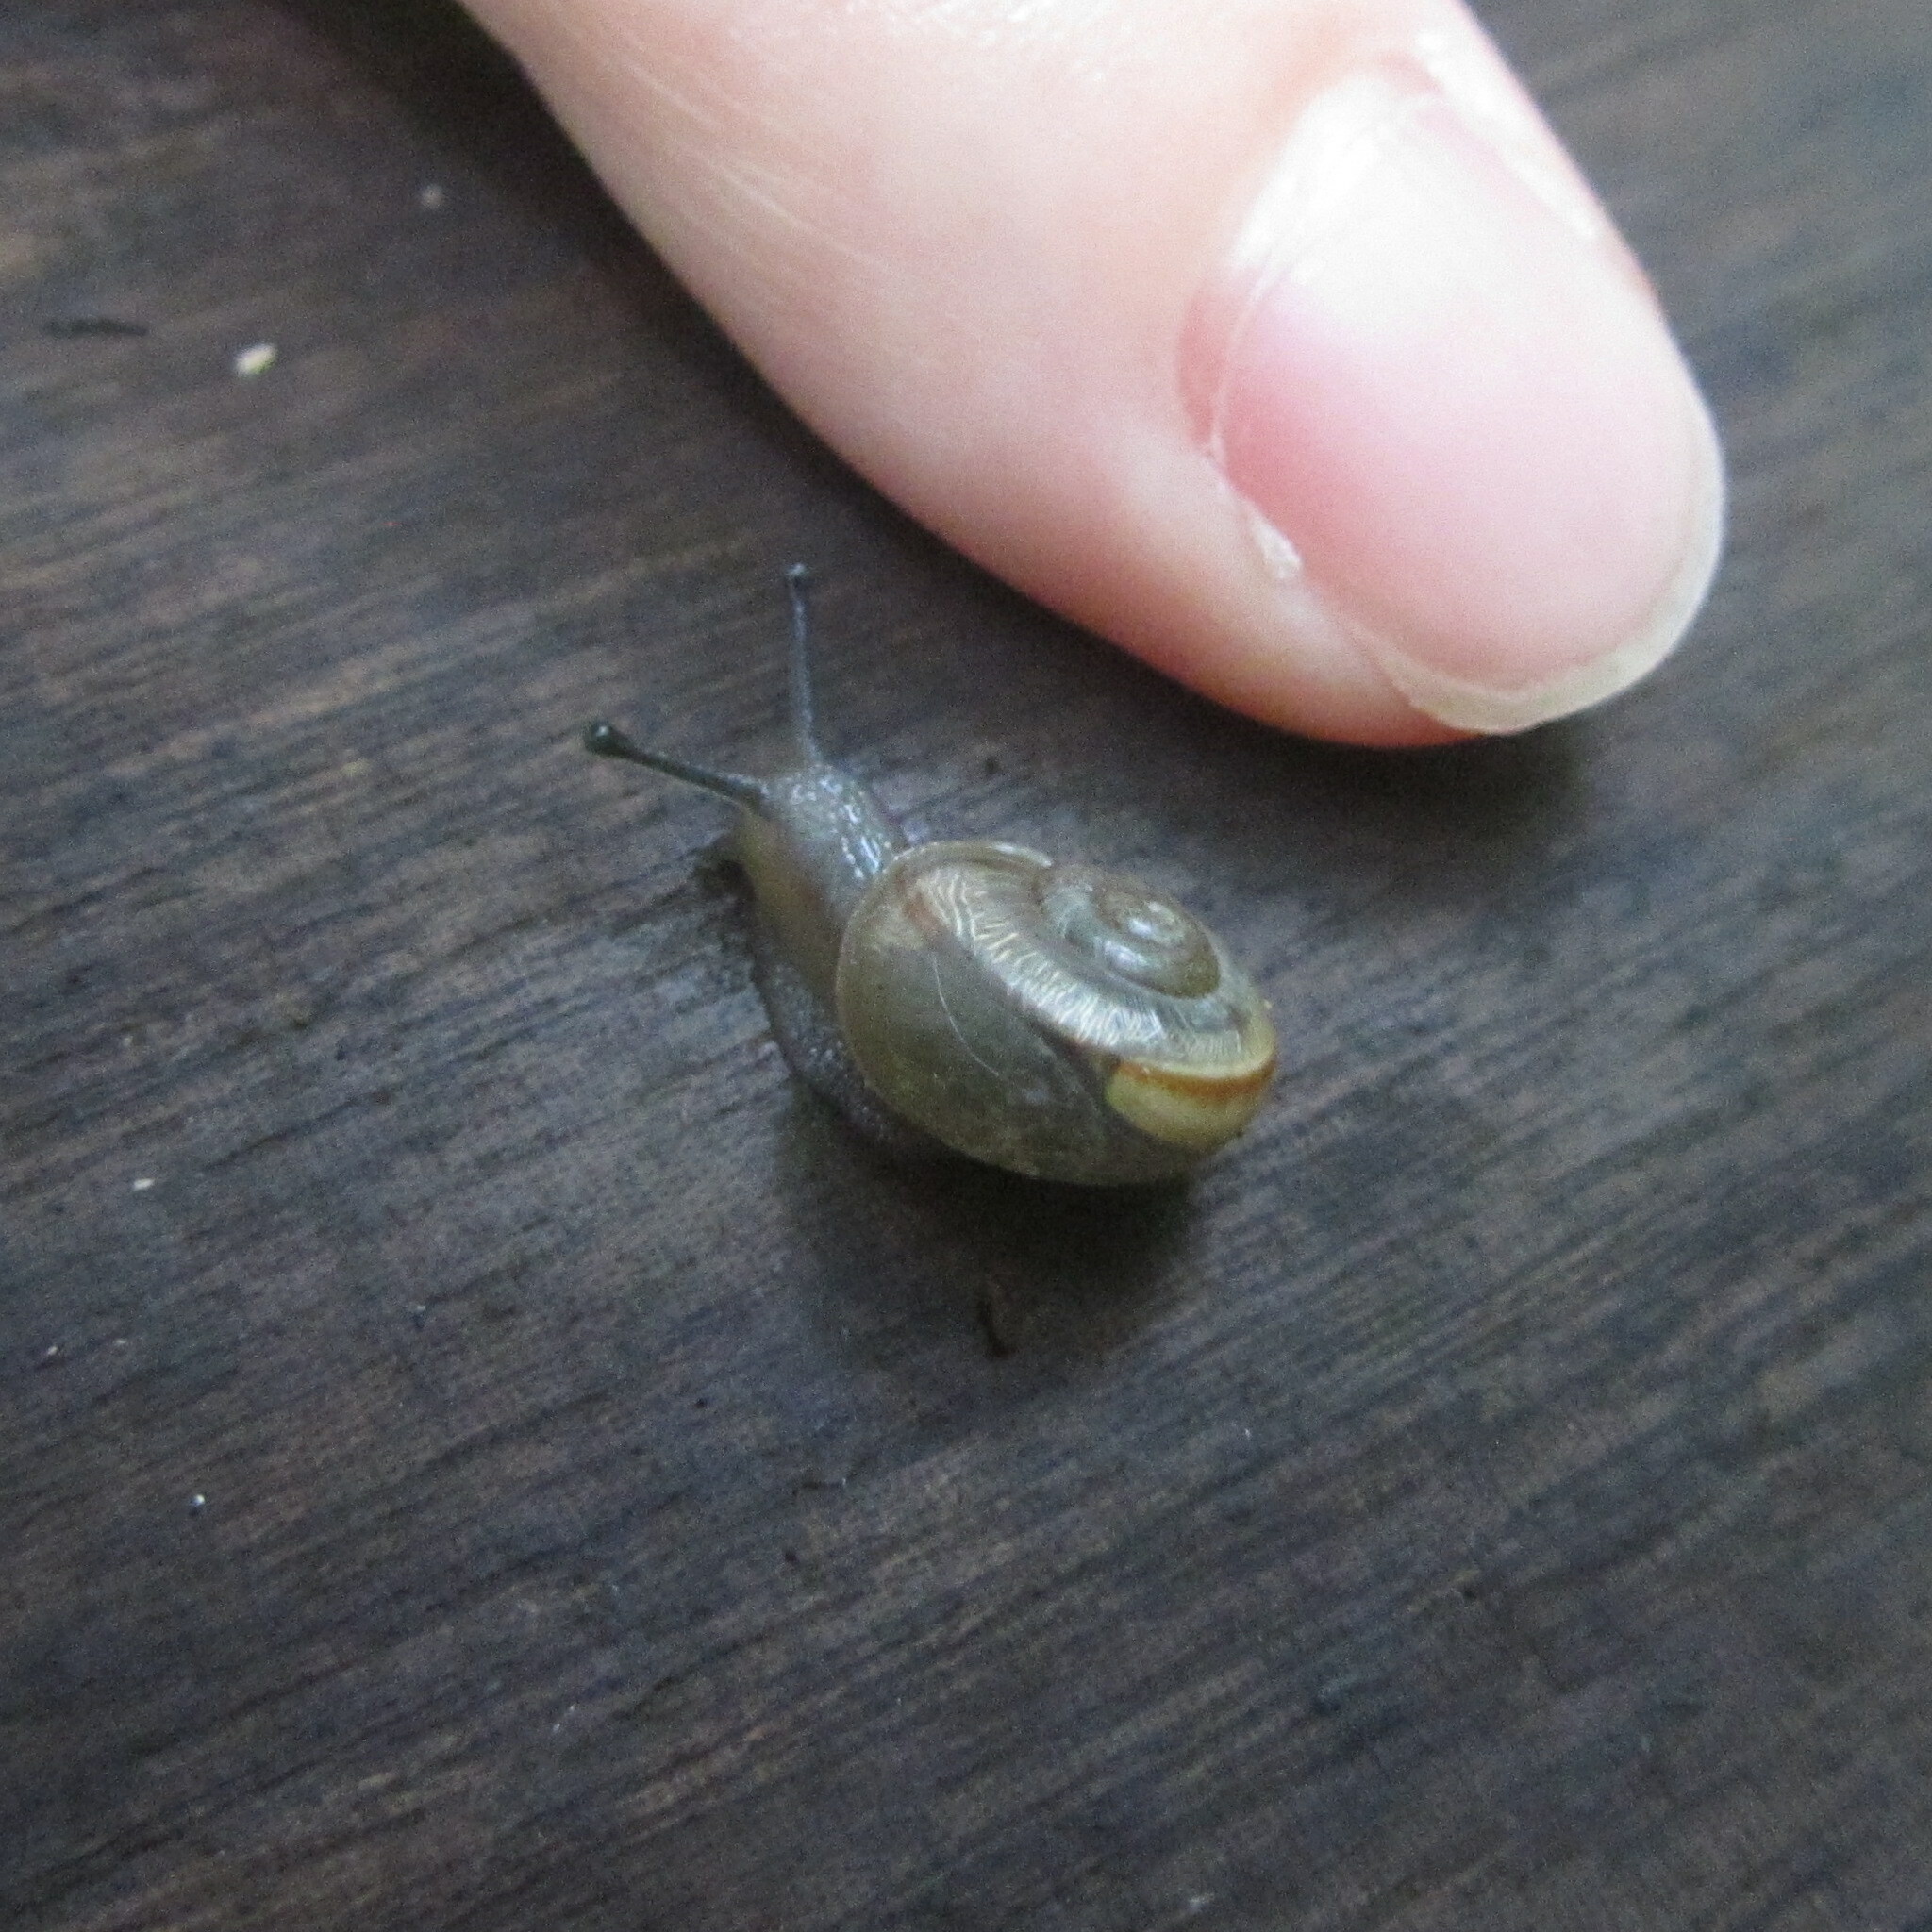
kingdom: Animalia
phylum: Mollusca
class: Gastropoda
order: Stylommatophora
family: Camaenidae
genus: Euhadra
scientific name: Euhadra peliomphala
